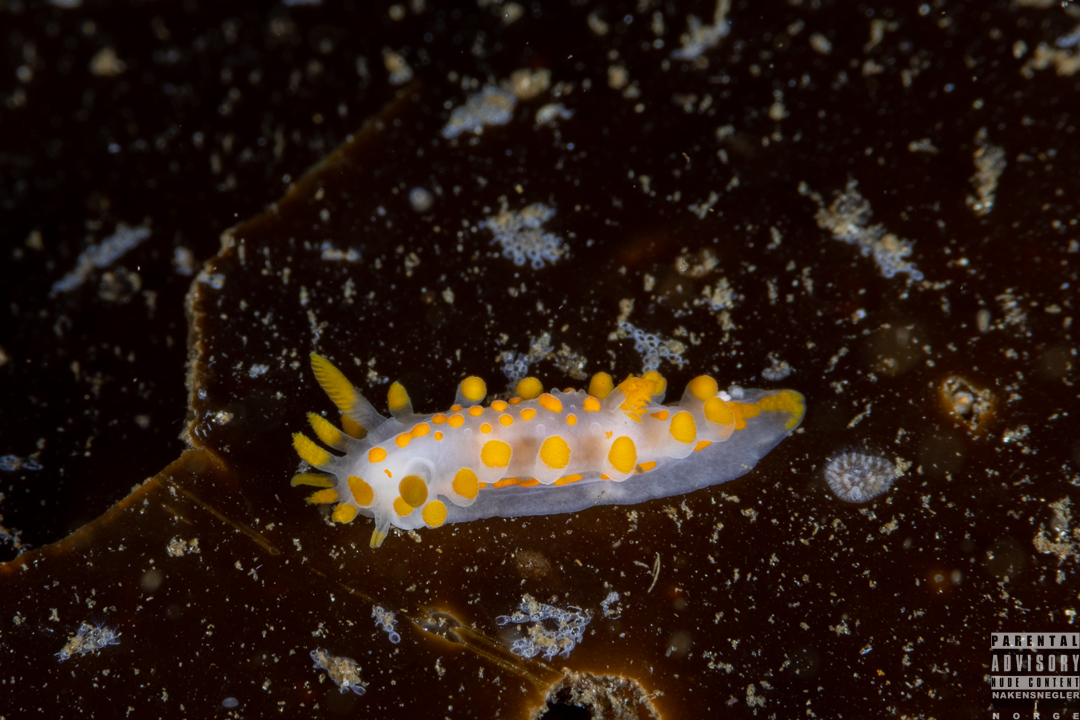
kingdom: Animalia
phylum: Mollusca
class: Gastropoda
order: Nudibranchia
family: Polyceridae
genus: Limacia
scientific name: Limacia clavigera
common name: Orange-clubbed sea slug
